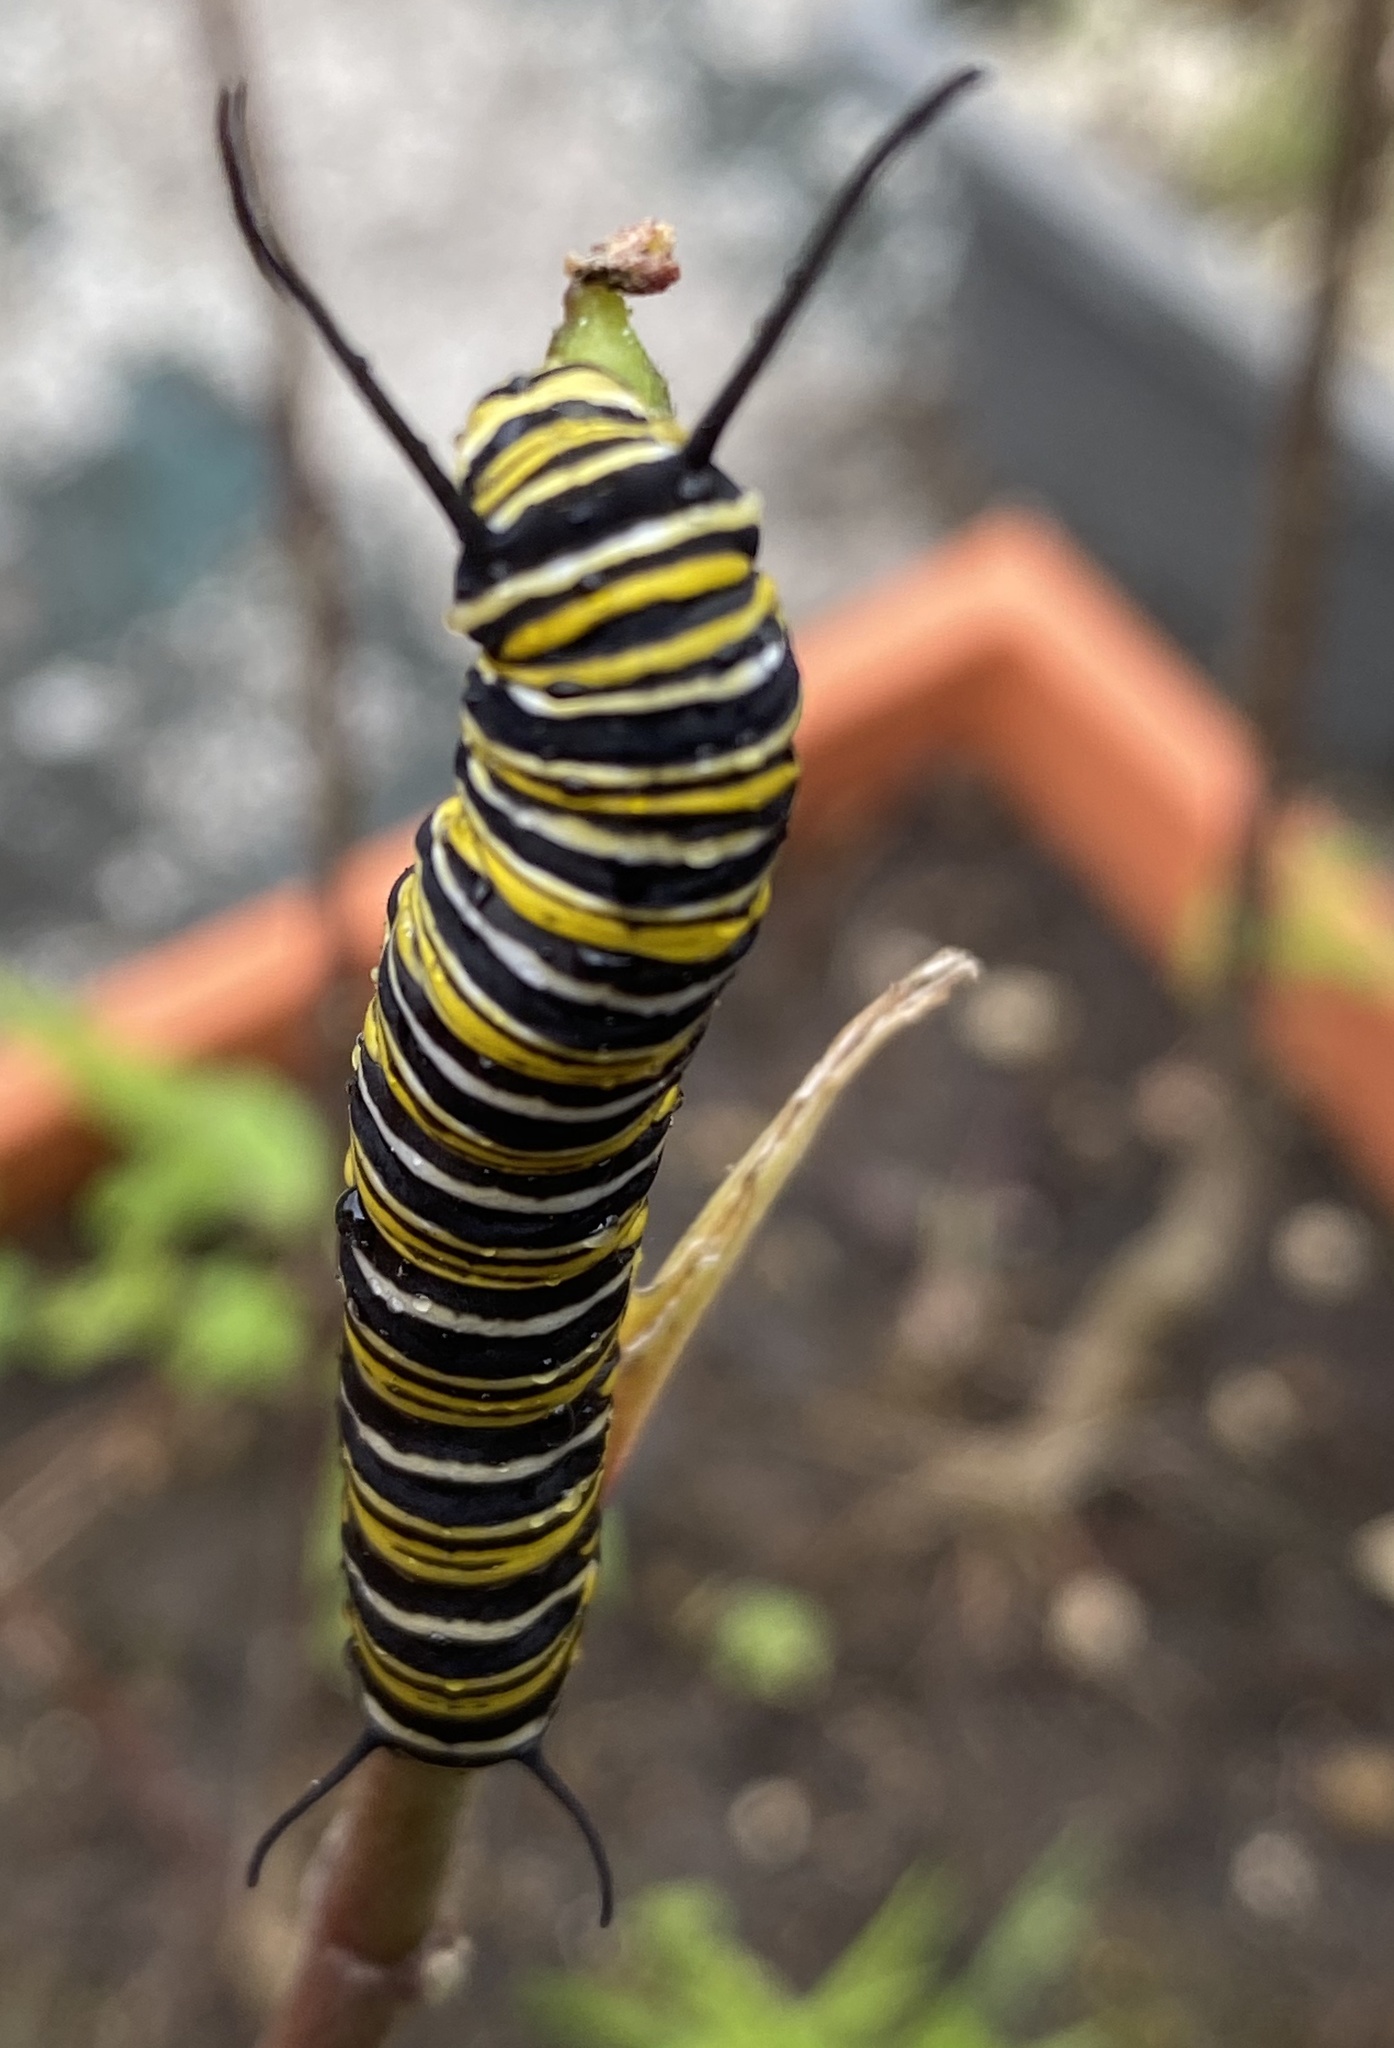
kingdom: Animalia
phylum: Arthropoda
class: Insecta
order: Lepidoptera
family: Nymphalidae
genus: Danaus
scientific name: Danaus plexippus
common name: Monarch
